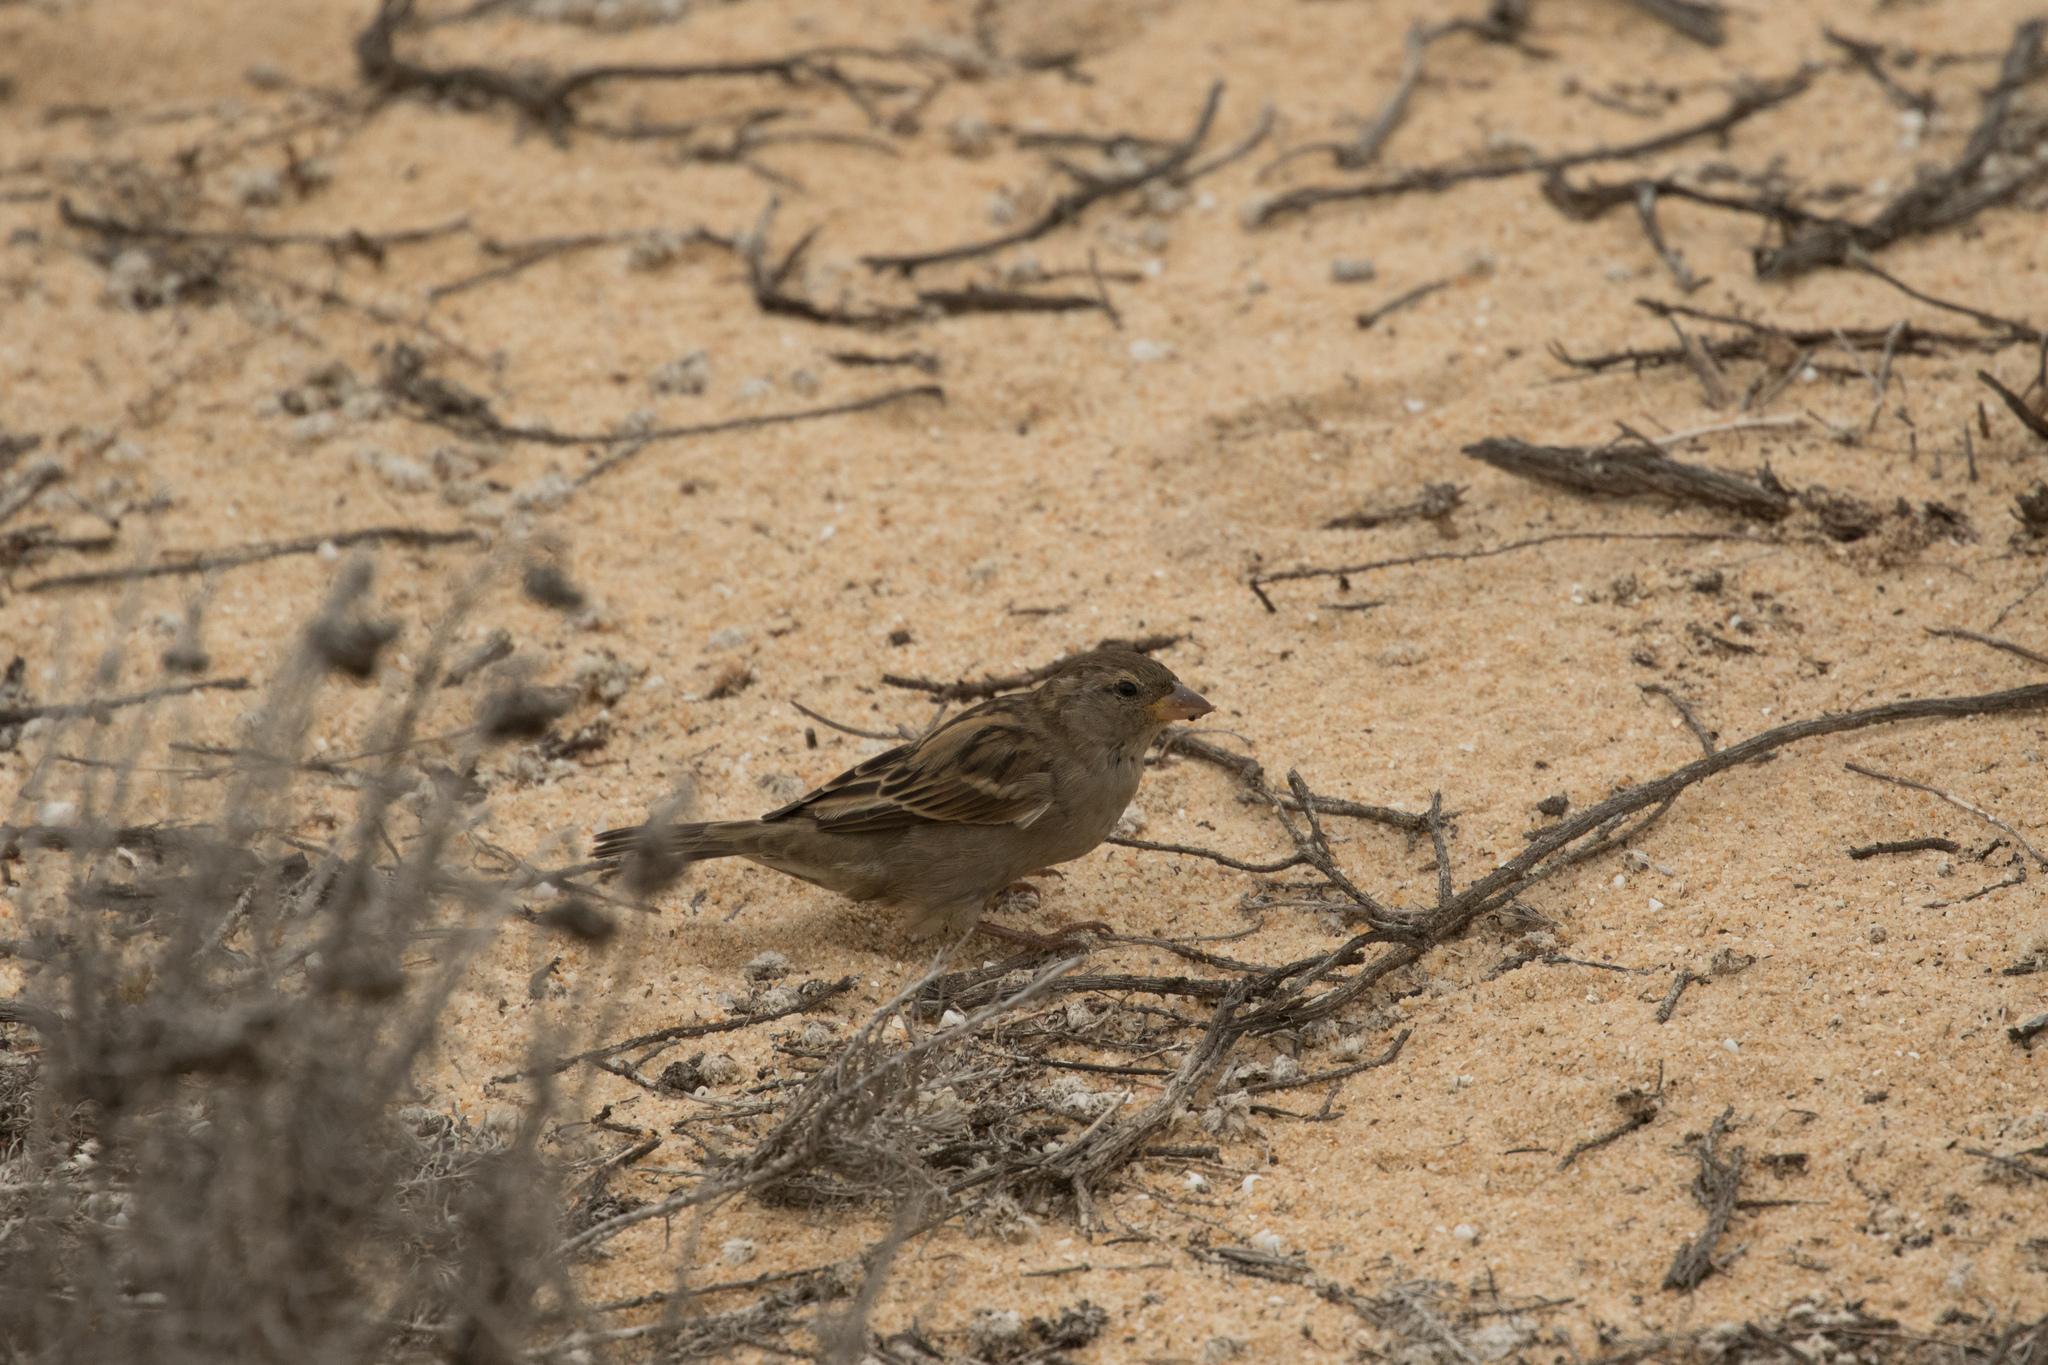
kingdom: Animalia
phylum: Chordata
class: Aves
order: Passeriformes
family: Passeridae
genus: Passer
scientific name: Passer domesticus
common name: House sparrow
